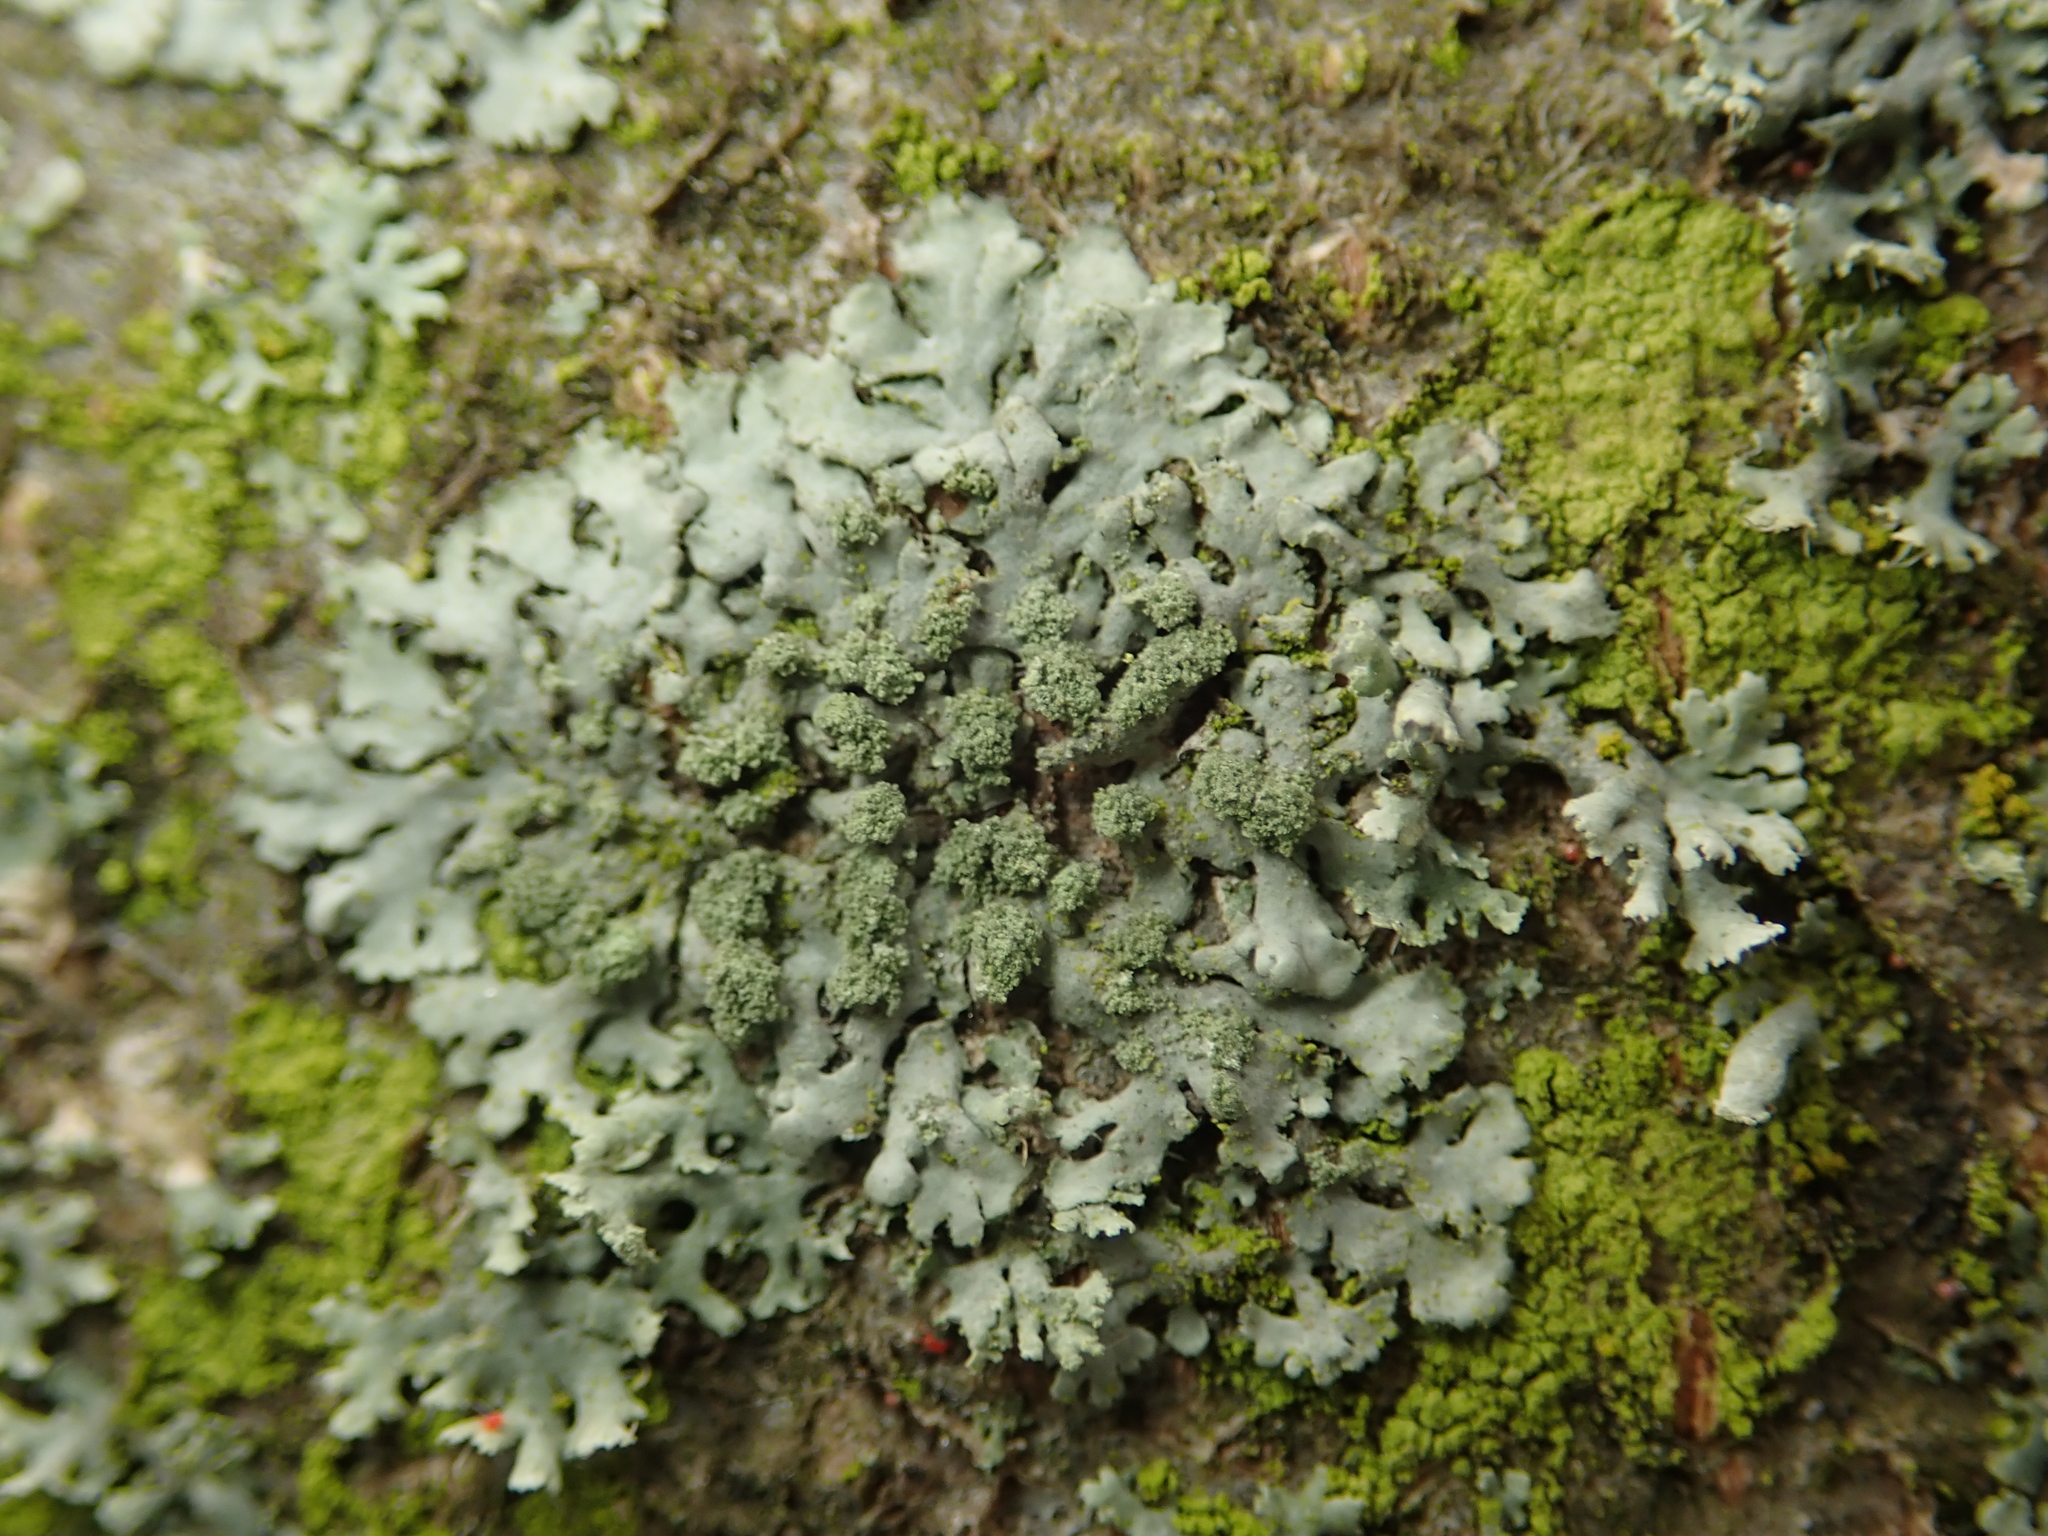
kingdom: Fungi
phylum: Ascomycota
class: Lecanoromycetes
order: Caliciales
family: Physciaceae
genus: Phaeophyscia
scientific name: Phaeophyscia orbicularis
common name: Mealy shadow lichen
